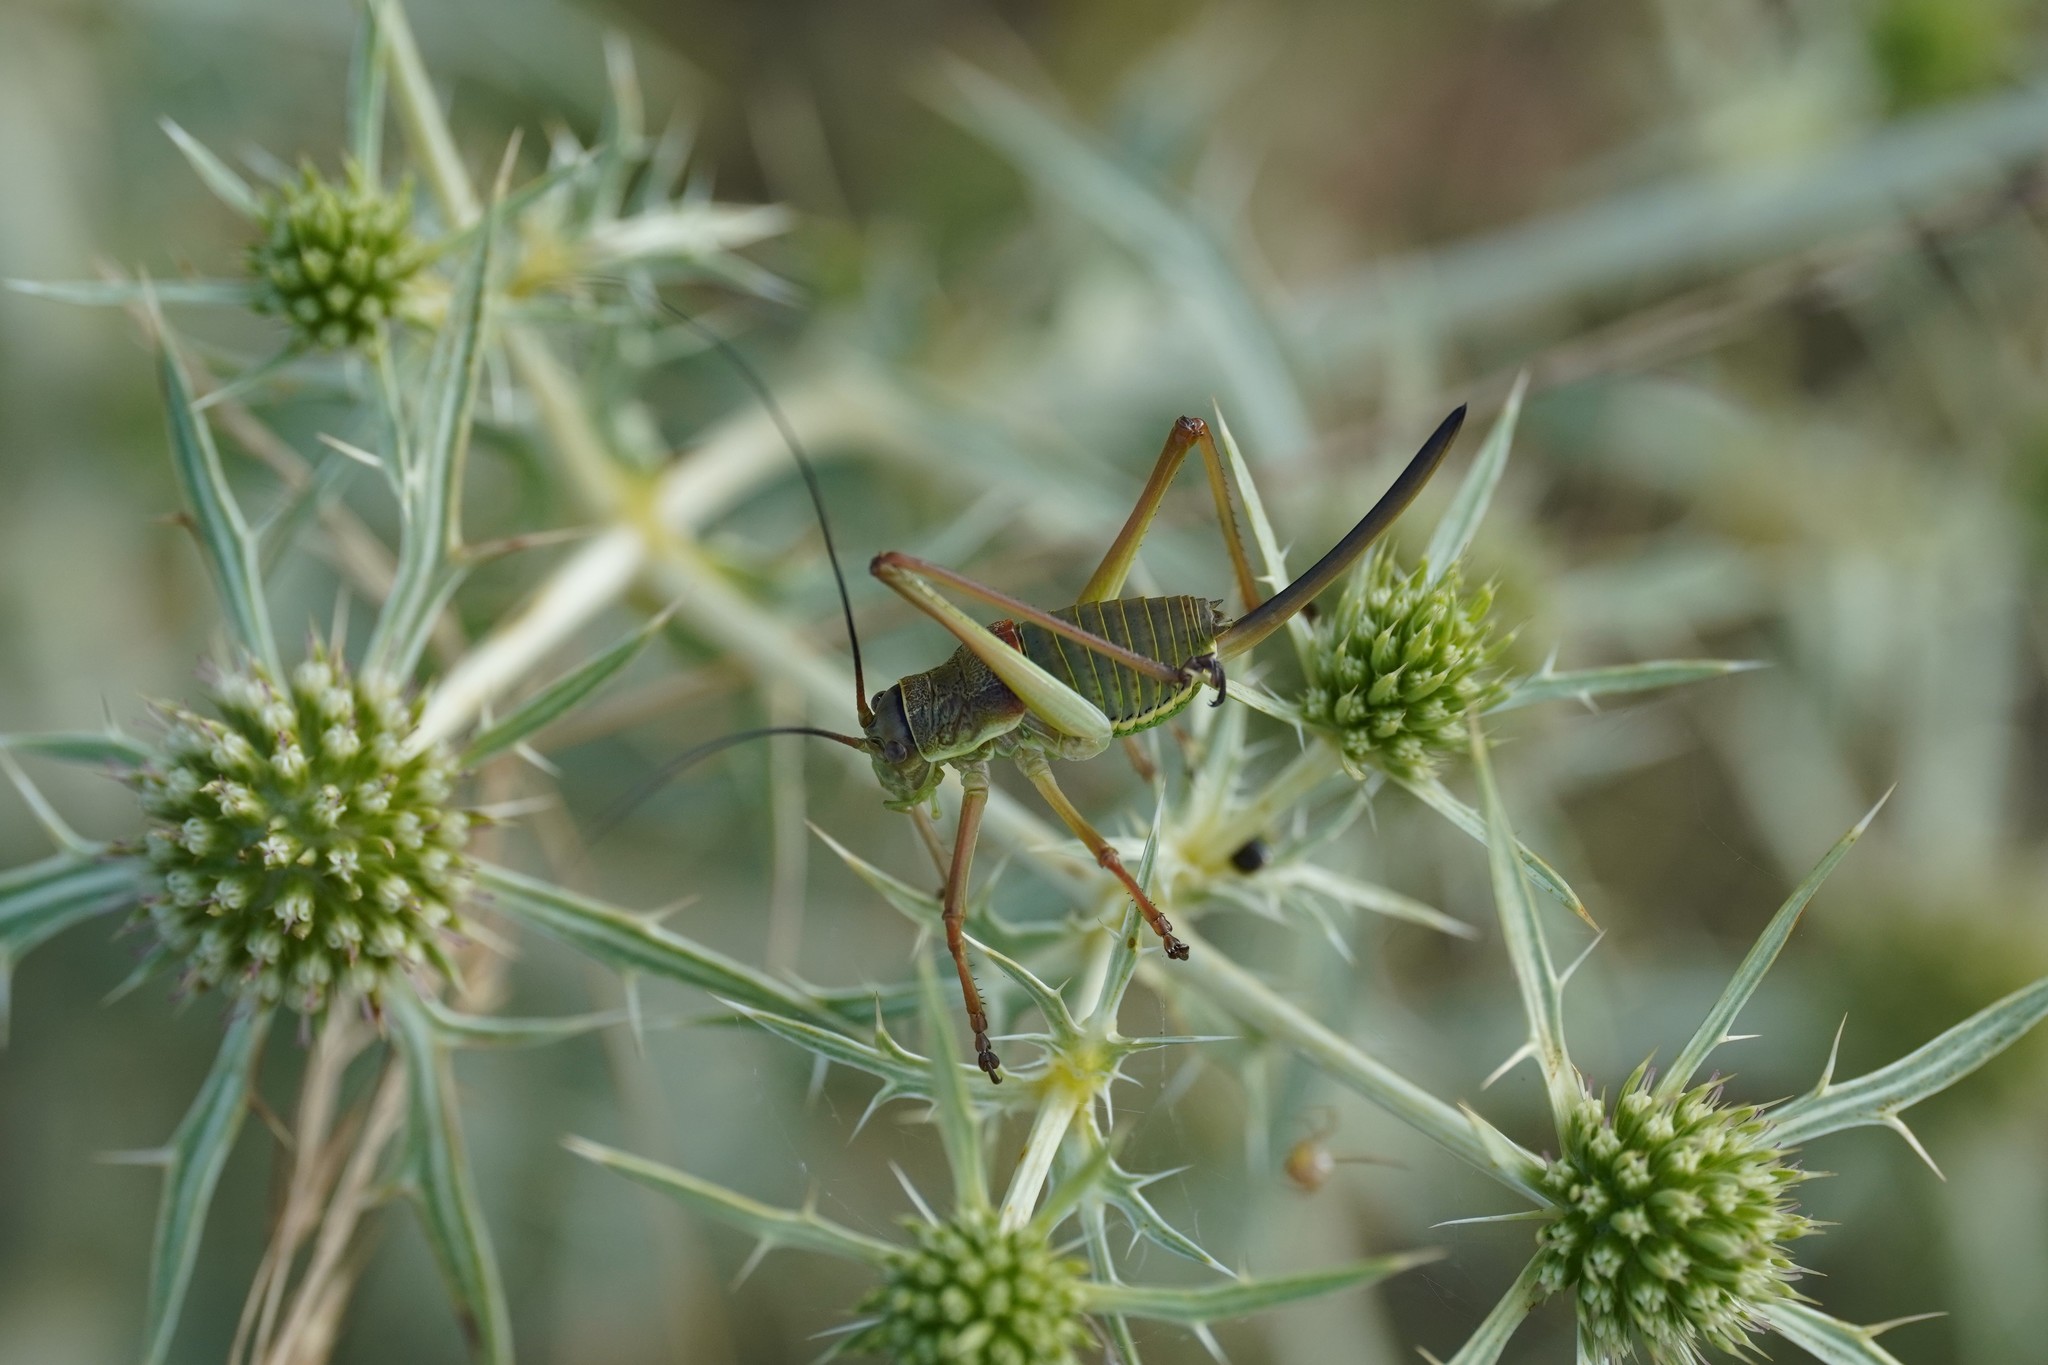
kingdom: Animalia
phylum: Arthropoda
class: Insecta
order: Orthoptera
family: Tettigoniidae
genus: Ephippiger
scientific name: Ephippiger diurnus
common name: Western saddle bush-cricket
